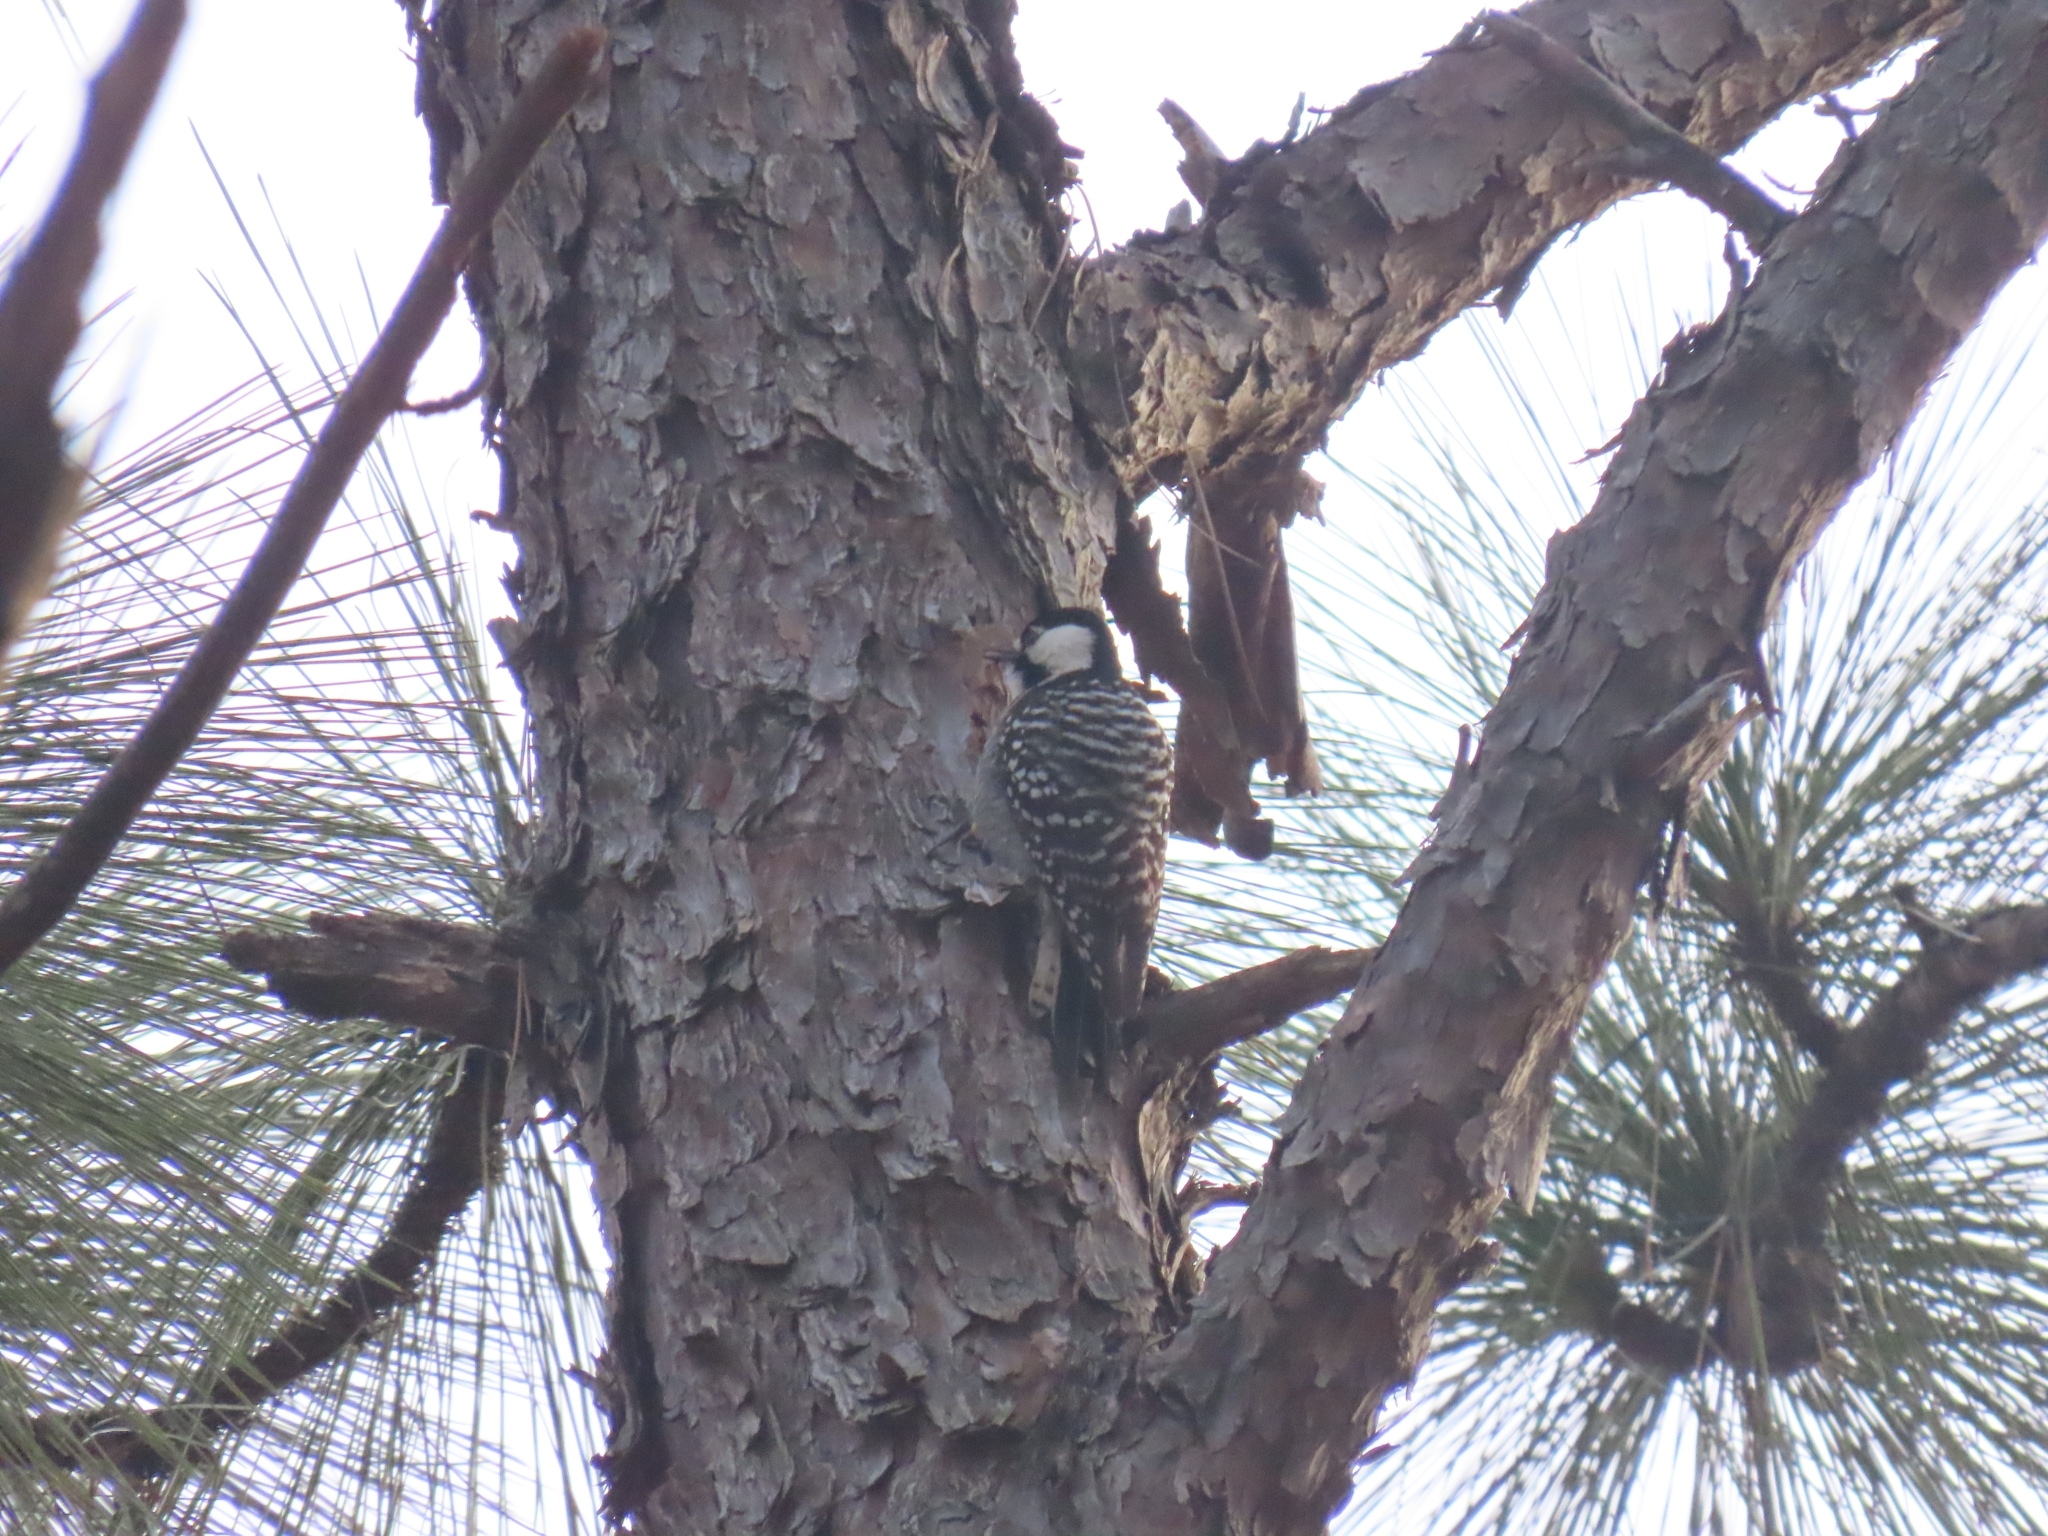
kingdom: Animalia
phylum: Chordata
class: Aves
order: Piciformes
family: Picidae
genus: Leuconotopicus
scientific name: Leuconotopicus borealis
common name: Red-cockaded woodpecker
